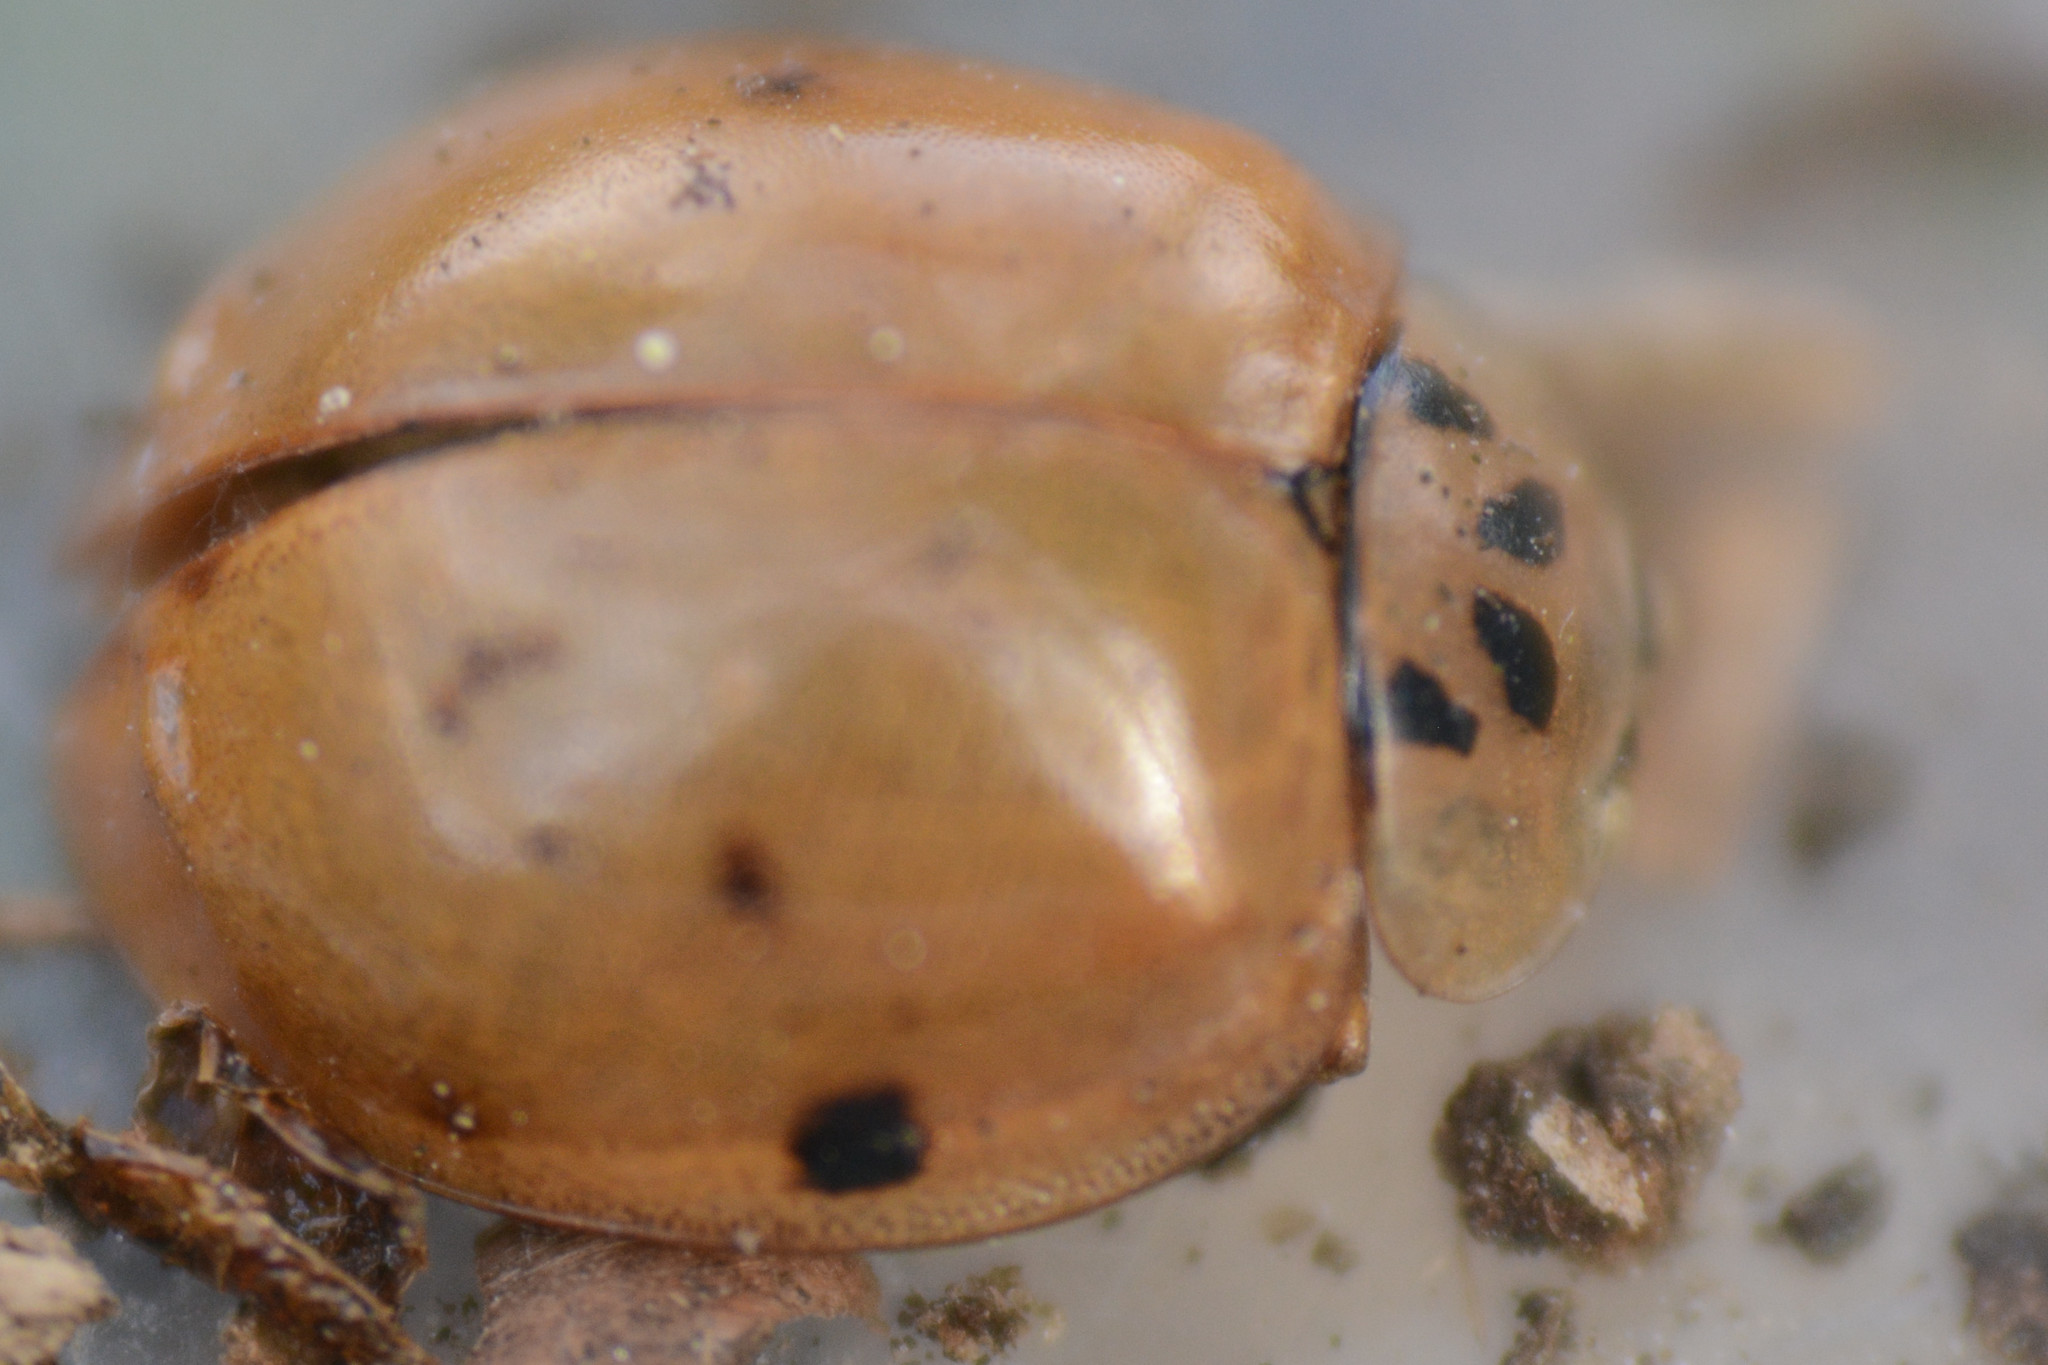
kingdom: Animalia
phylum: Arthropoda
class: Insecta
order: Coleoptera
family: Coccinellidae
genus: Adalia
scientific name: Adalia decempunctata
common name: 10-spot ladybird
